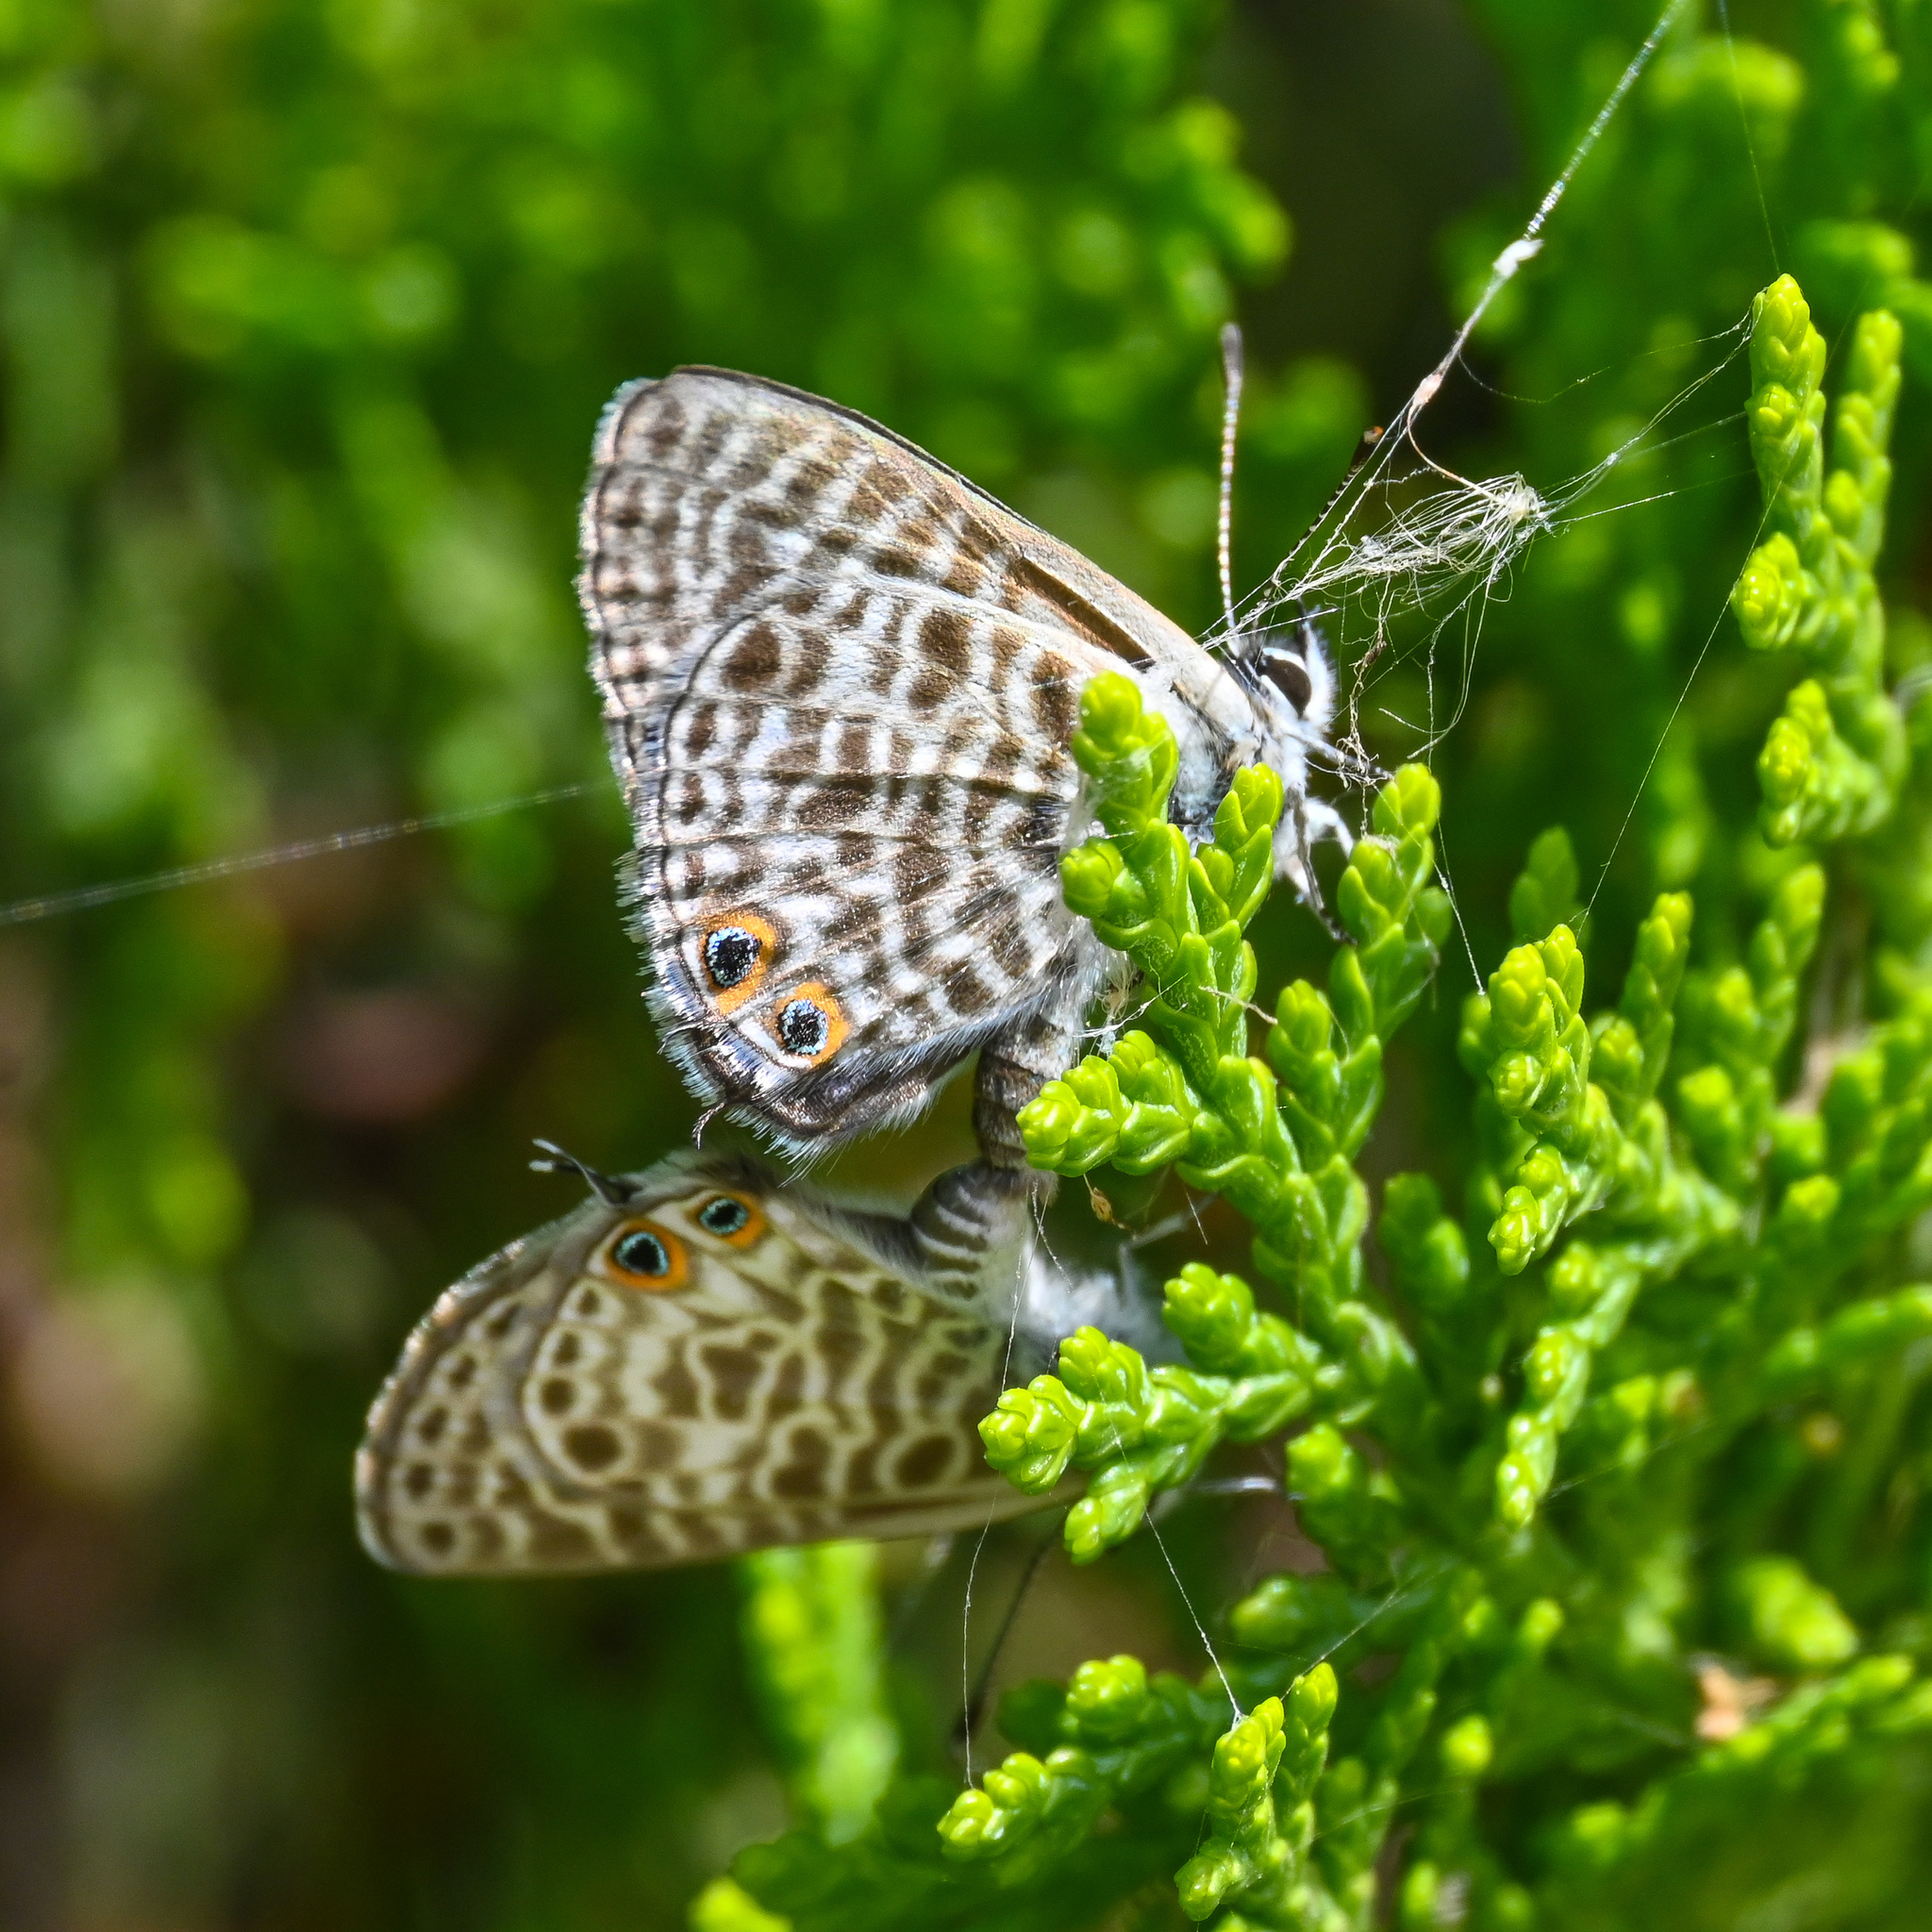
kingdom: Animalia
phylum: Arthropoda
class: Insecta
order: Lepidoptera
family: Lycaenidae
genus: Leptotes
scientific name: Leptotes pirithous
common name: Lang's short-tailed blue
